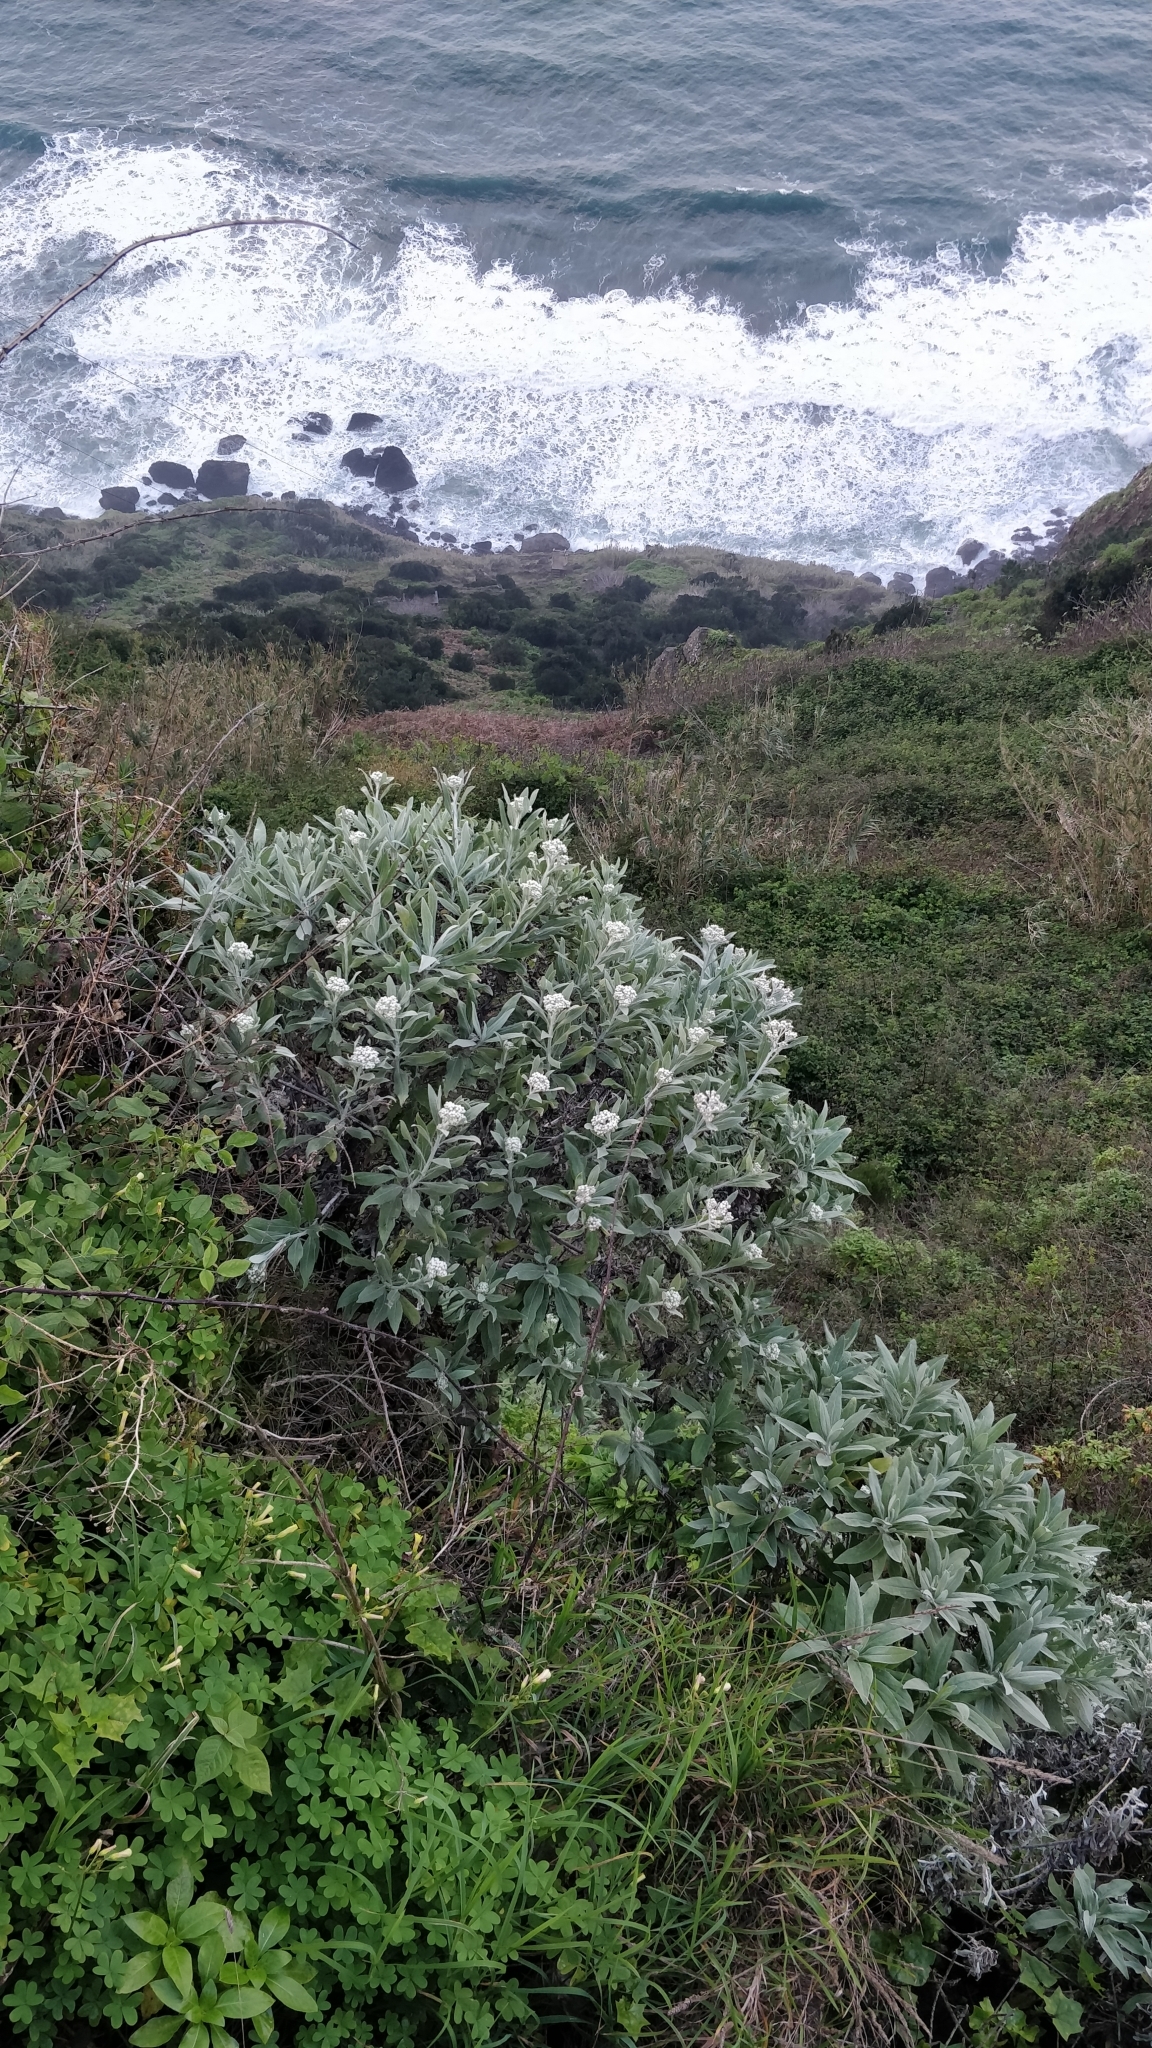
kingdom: Plantae
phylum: Tracheophyta
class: Magnoliopsida
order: Asterales
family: Asteraceae
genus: Helichrysum
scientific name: Helichrysum melaleucum
